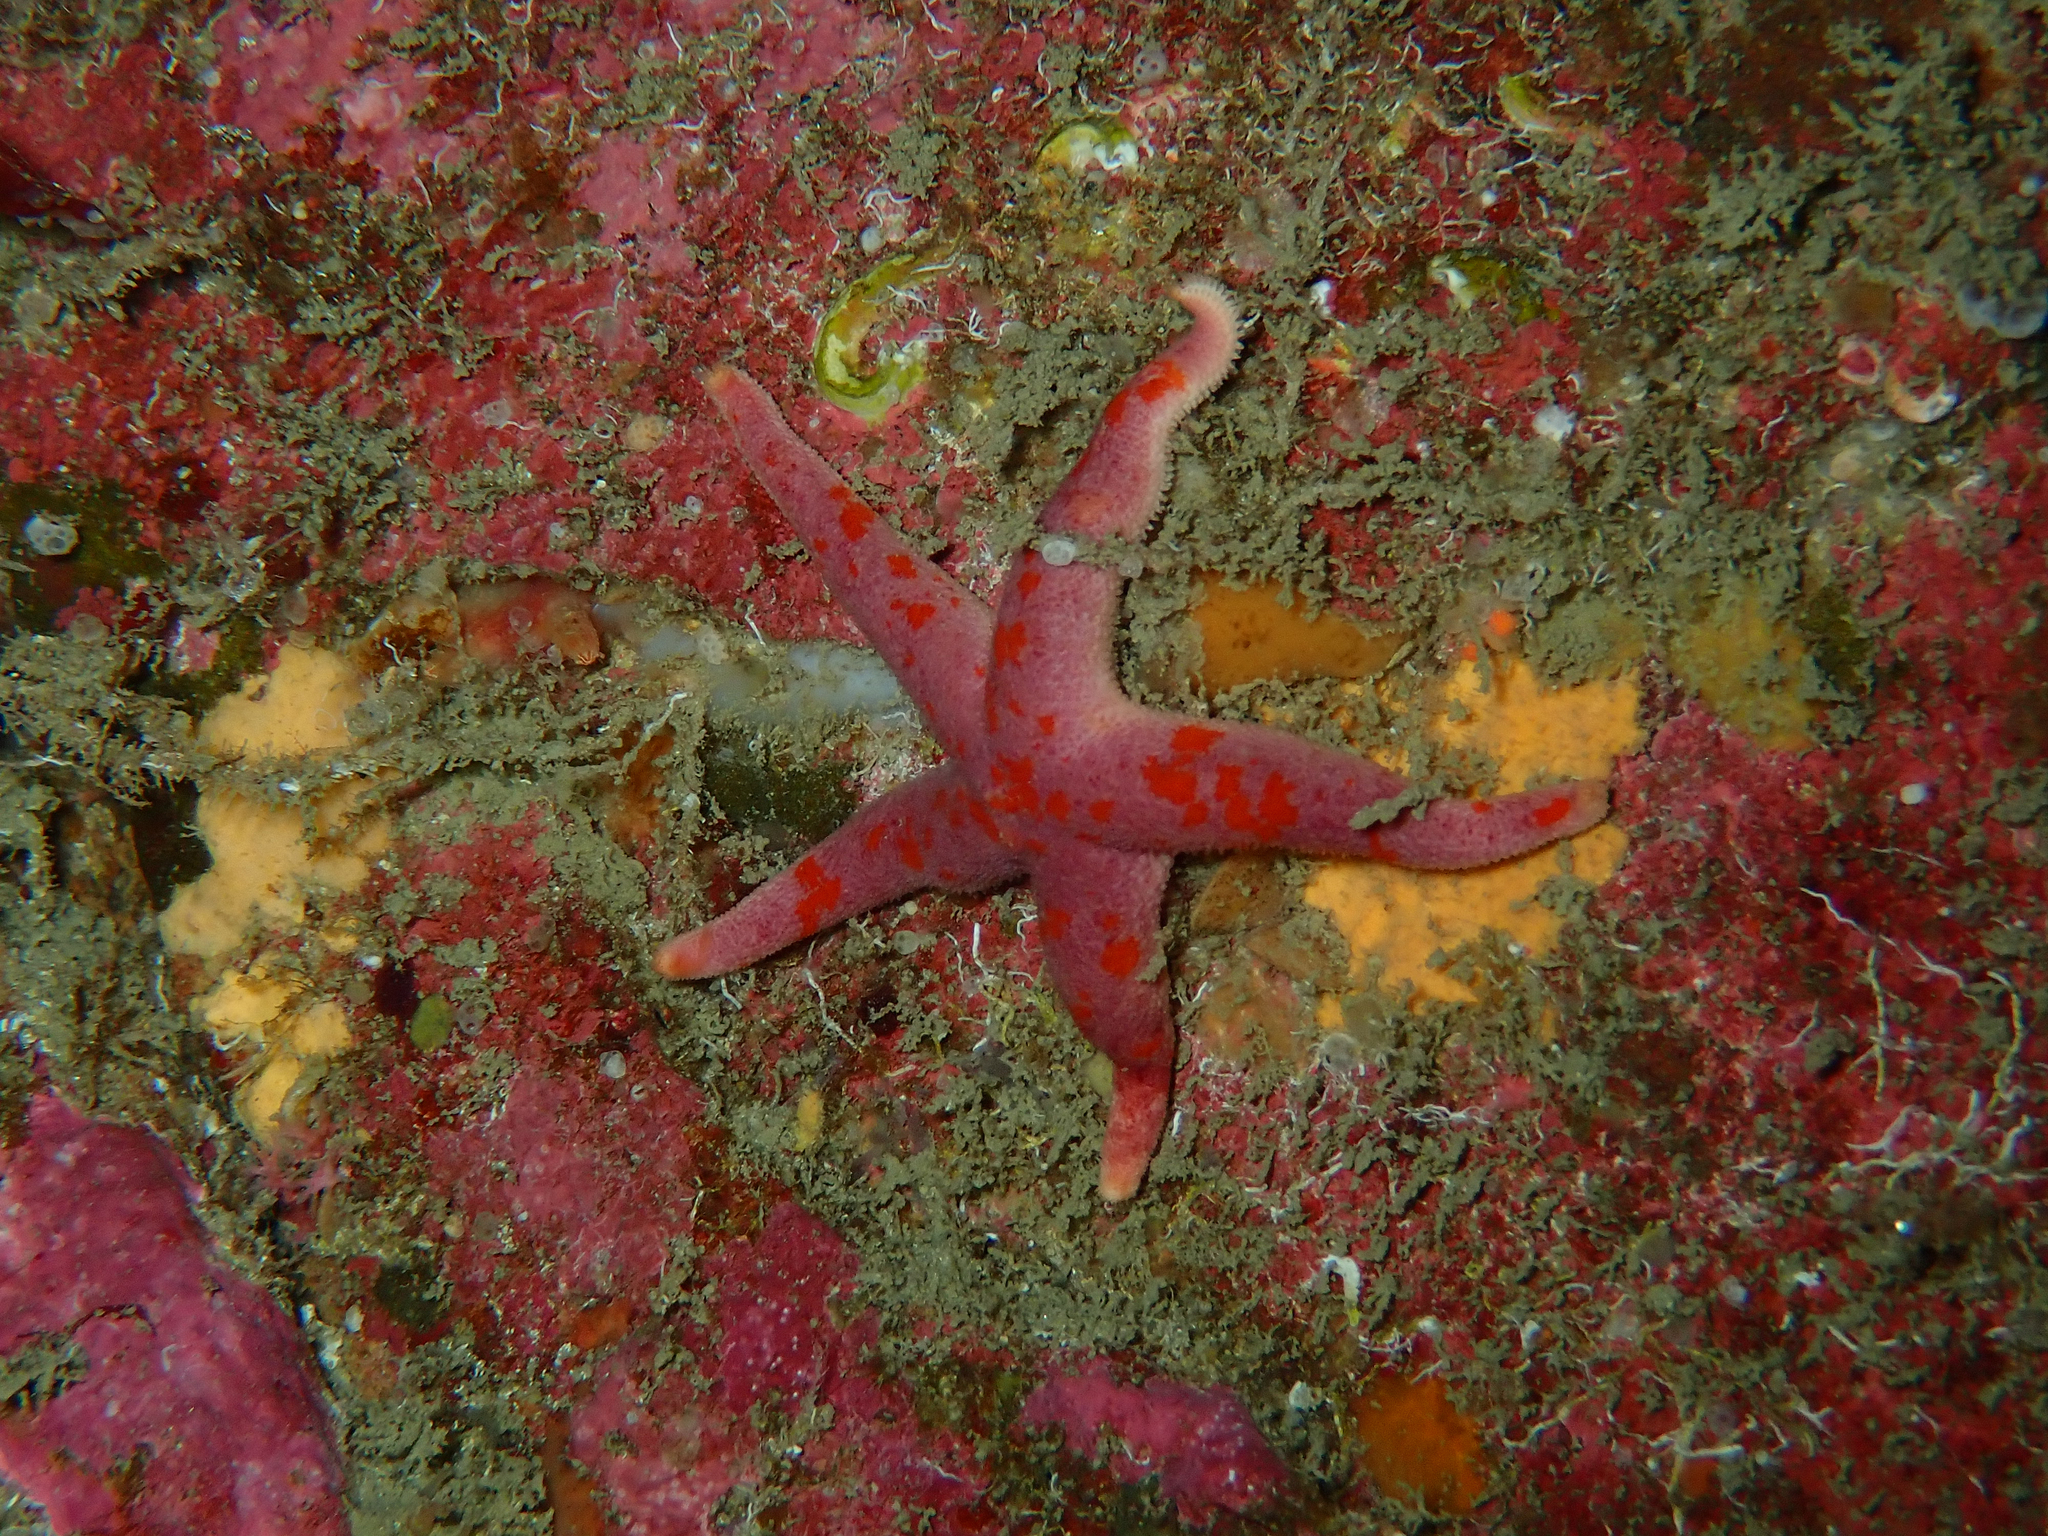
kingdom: Animalia
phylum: Echinodermata
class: Asteroidea
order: Spinulosida
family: Echinasteridae
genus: Henricia
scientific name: Henricia oculata
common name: Bloody henry starfish
